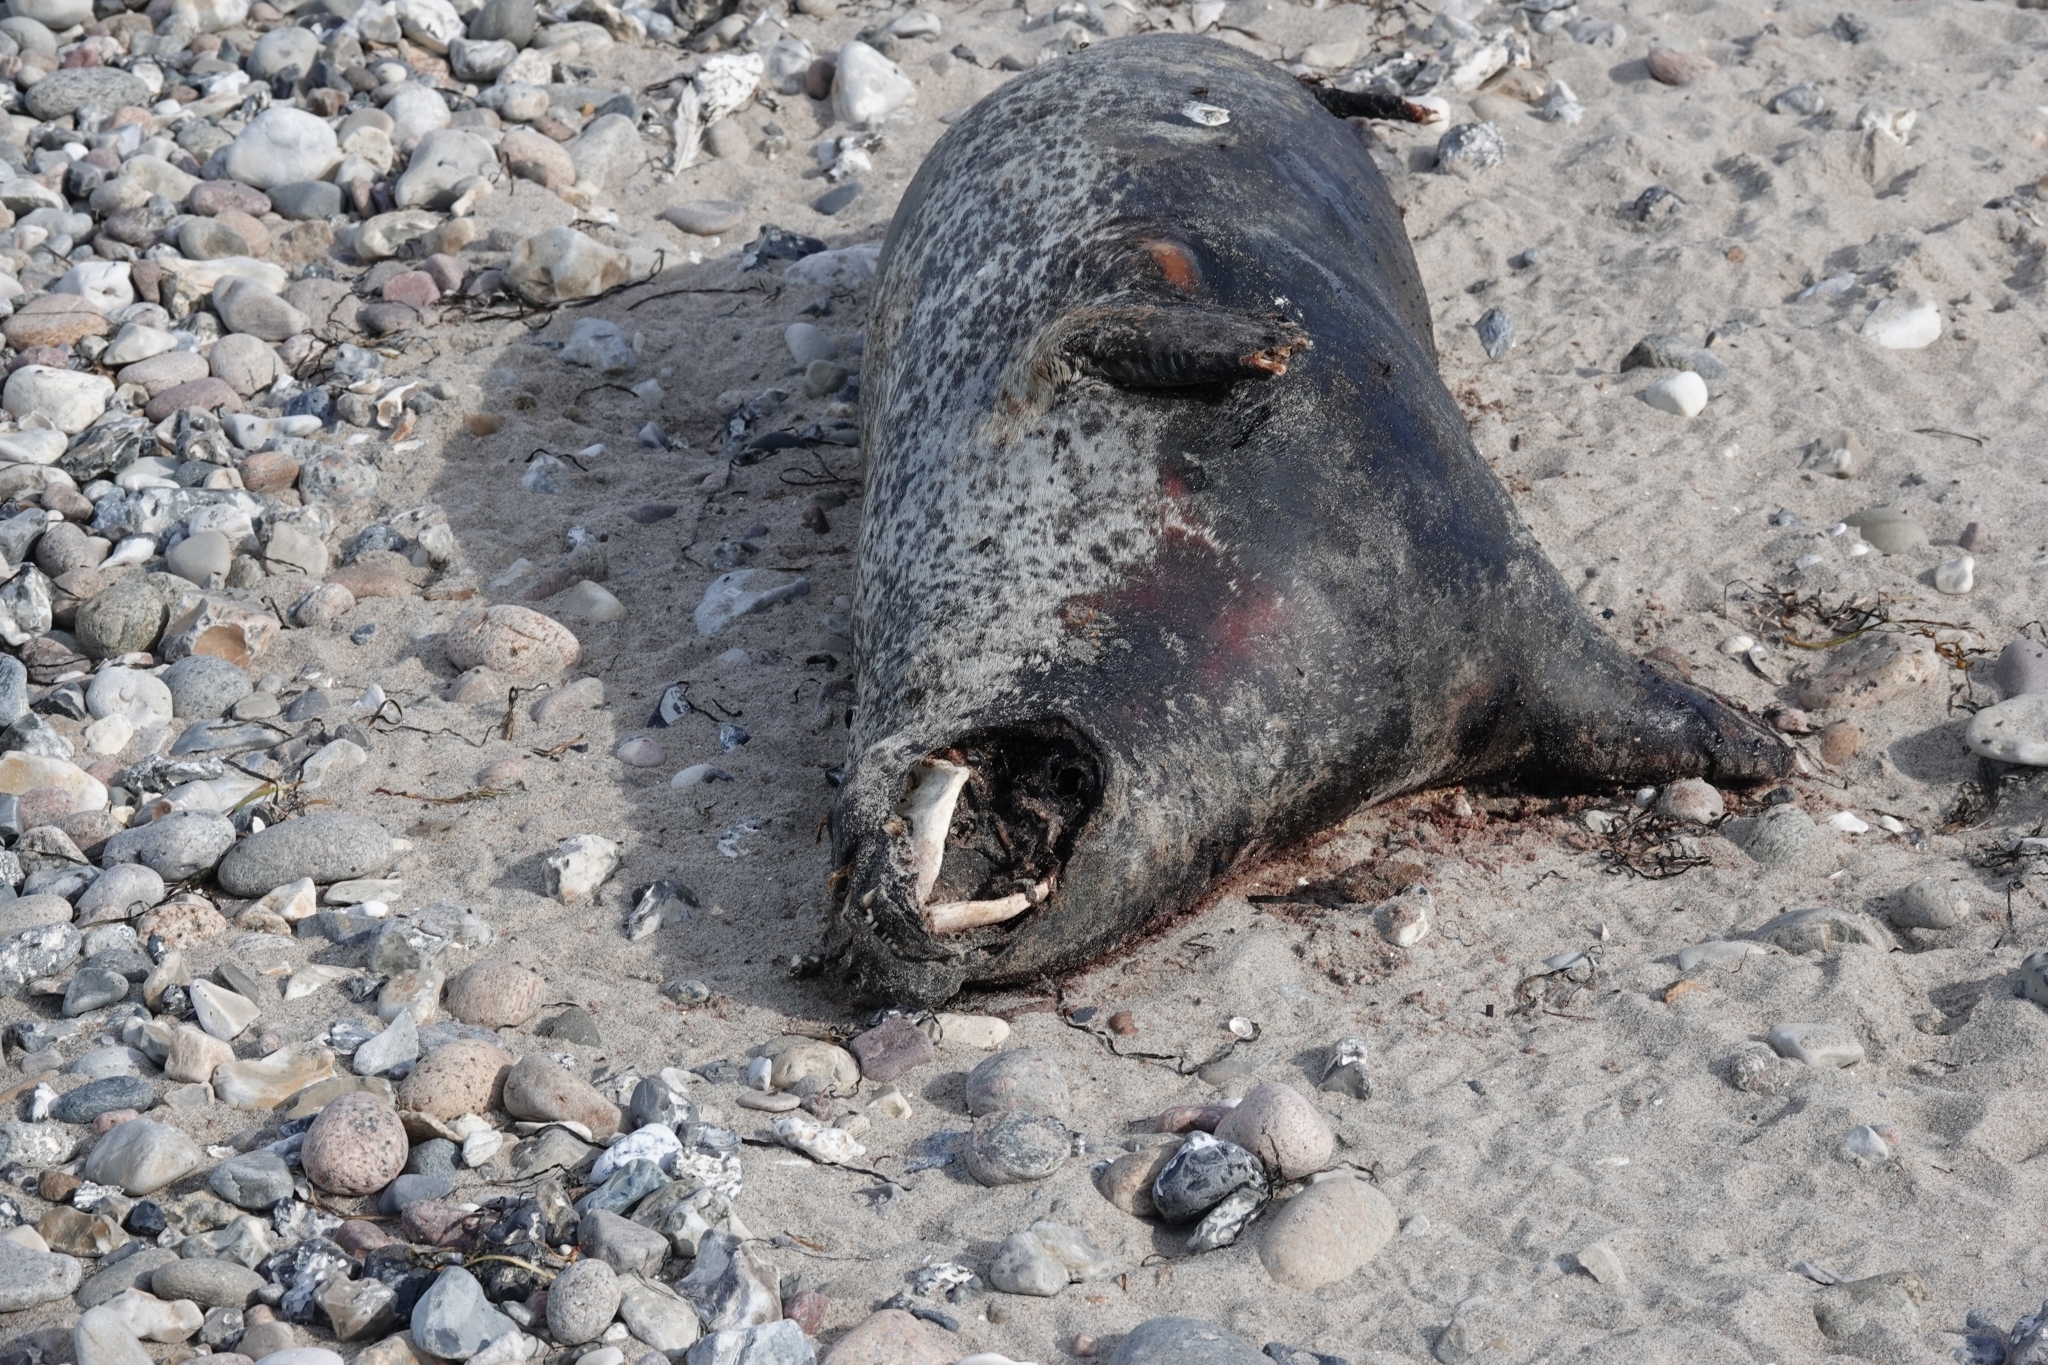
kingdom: Animalia
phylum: Chordata
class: Mammalia
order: Carnivora
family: Phocidae
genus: Phoca
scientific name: Phoca vitulina
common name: Harbor seal
